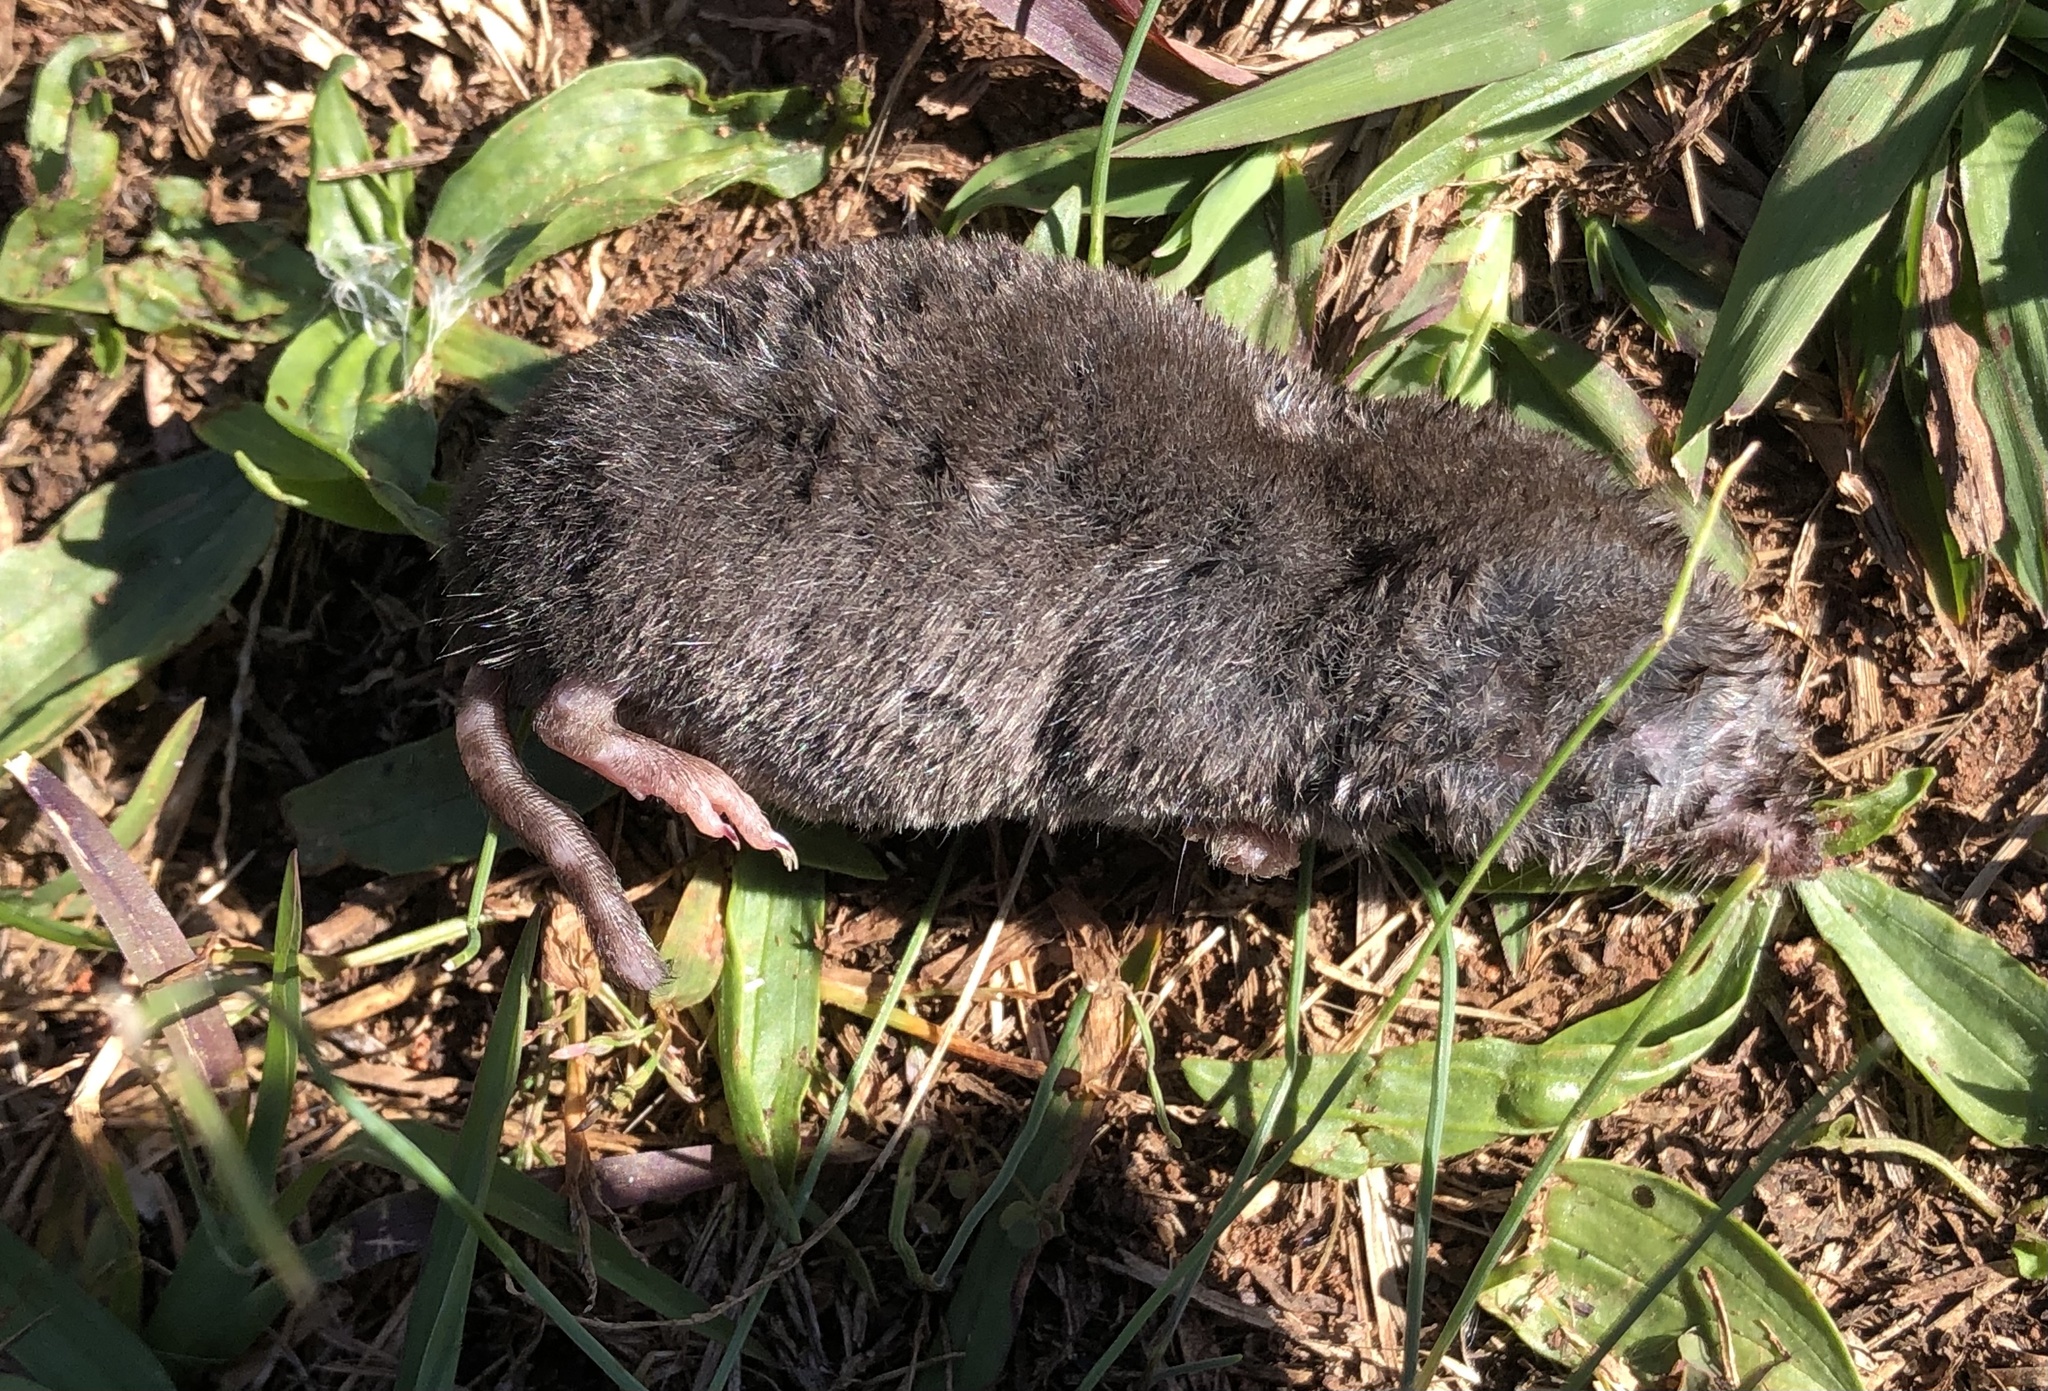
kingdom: Animalia
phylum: Chordata
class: Mammalia
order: Soricomorpha
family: Soricidae
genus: Blarina
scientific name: Blarina brevicauda
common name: Northern short-tailed shrew
